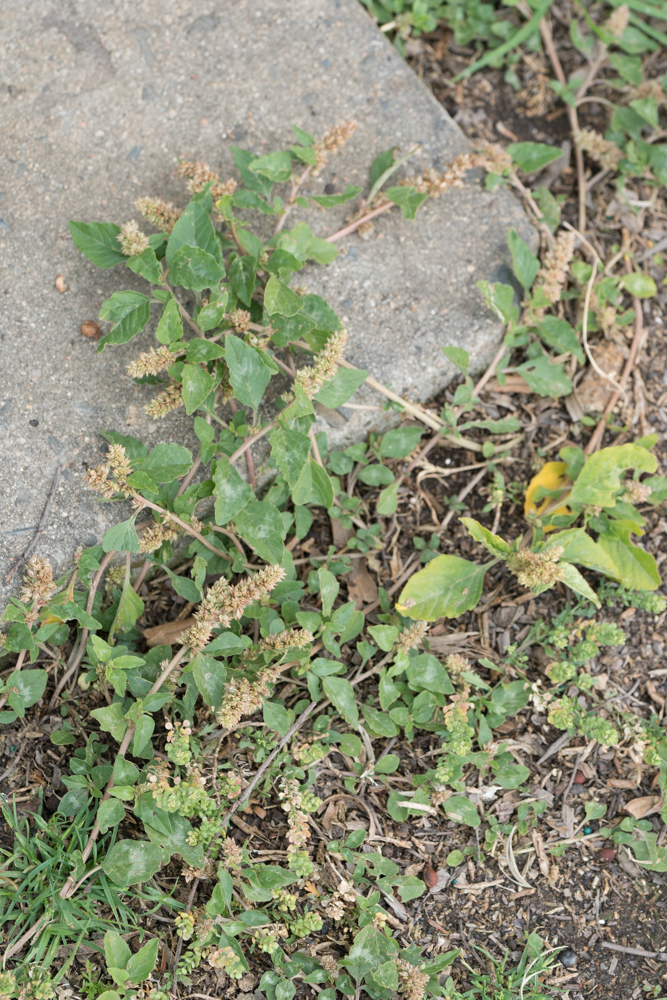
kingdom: Plantae
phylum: Tracheophyta
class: Magnoliopsida
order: Caryophyllales
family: Amaranthaceae
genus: Amaranthus
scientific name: Amaranthus deflexus
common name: Perennial pigweed
